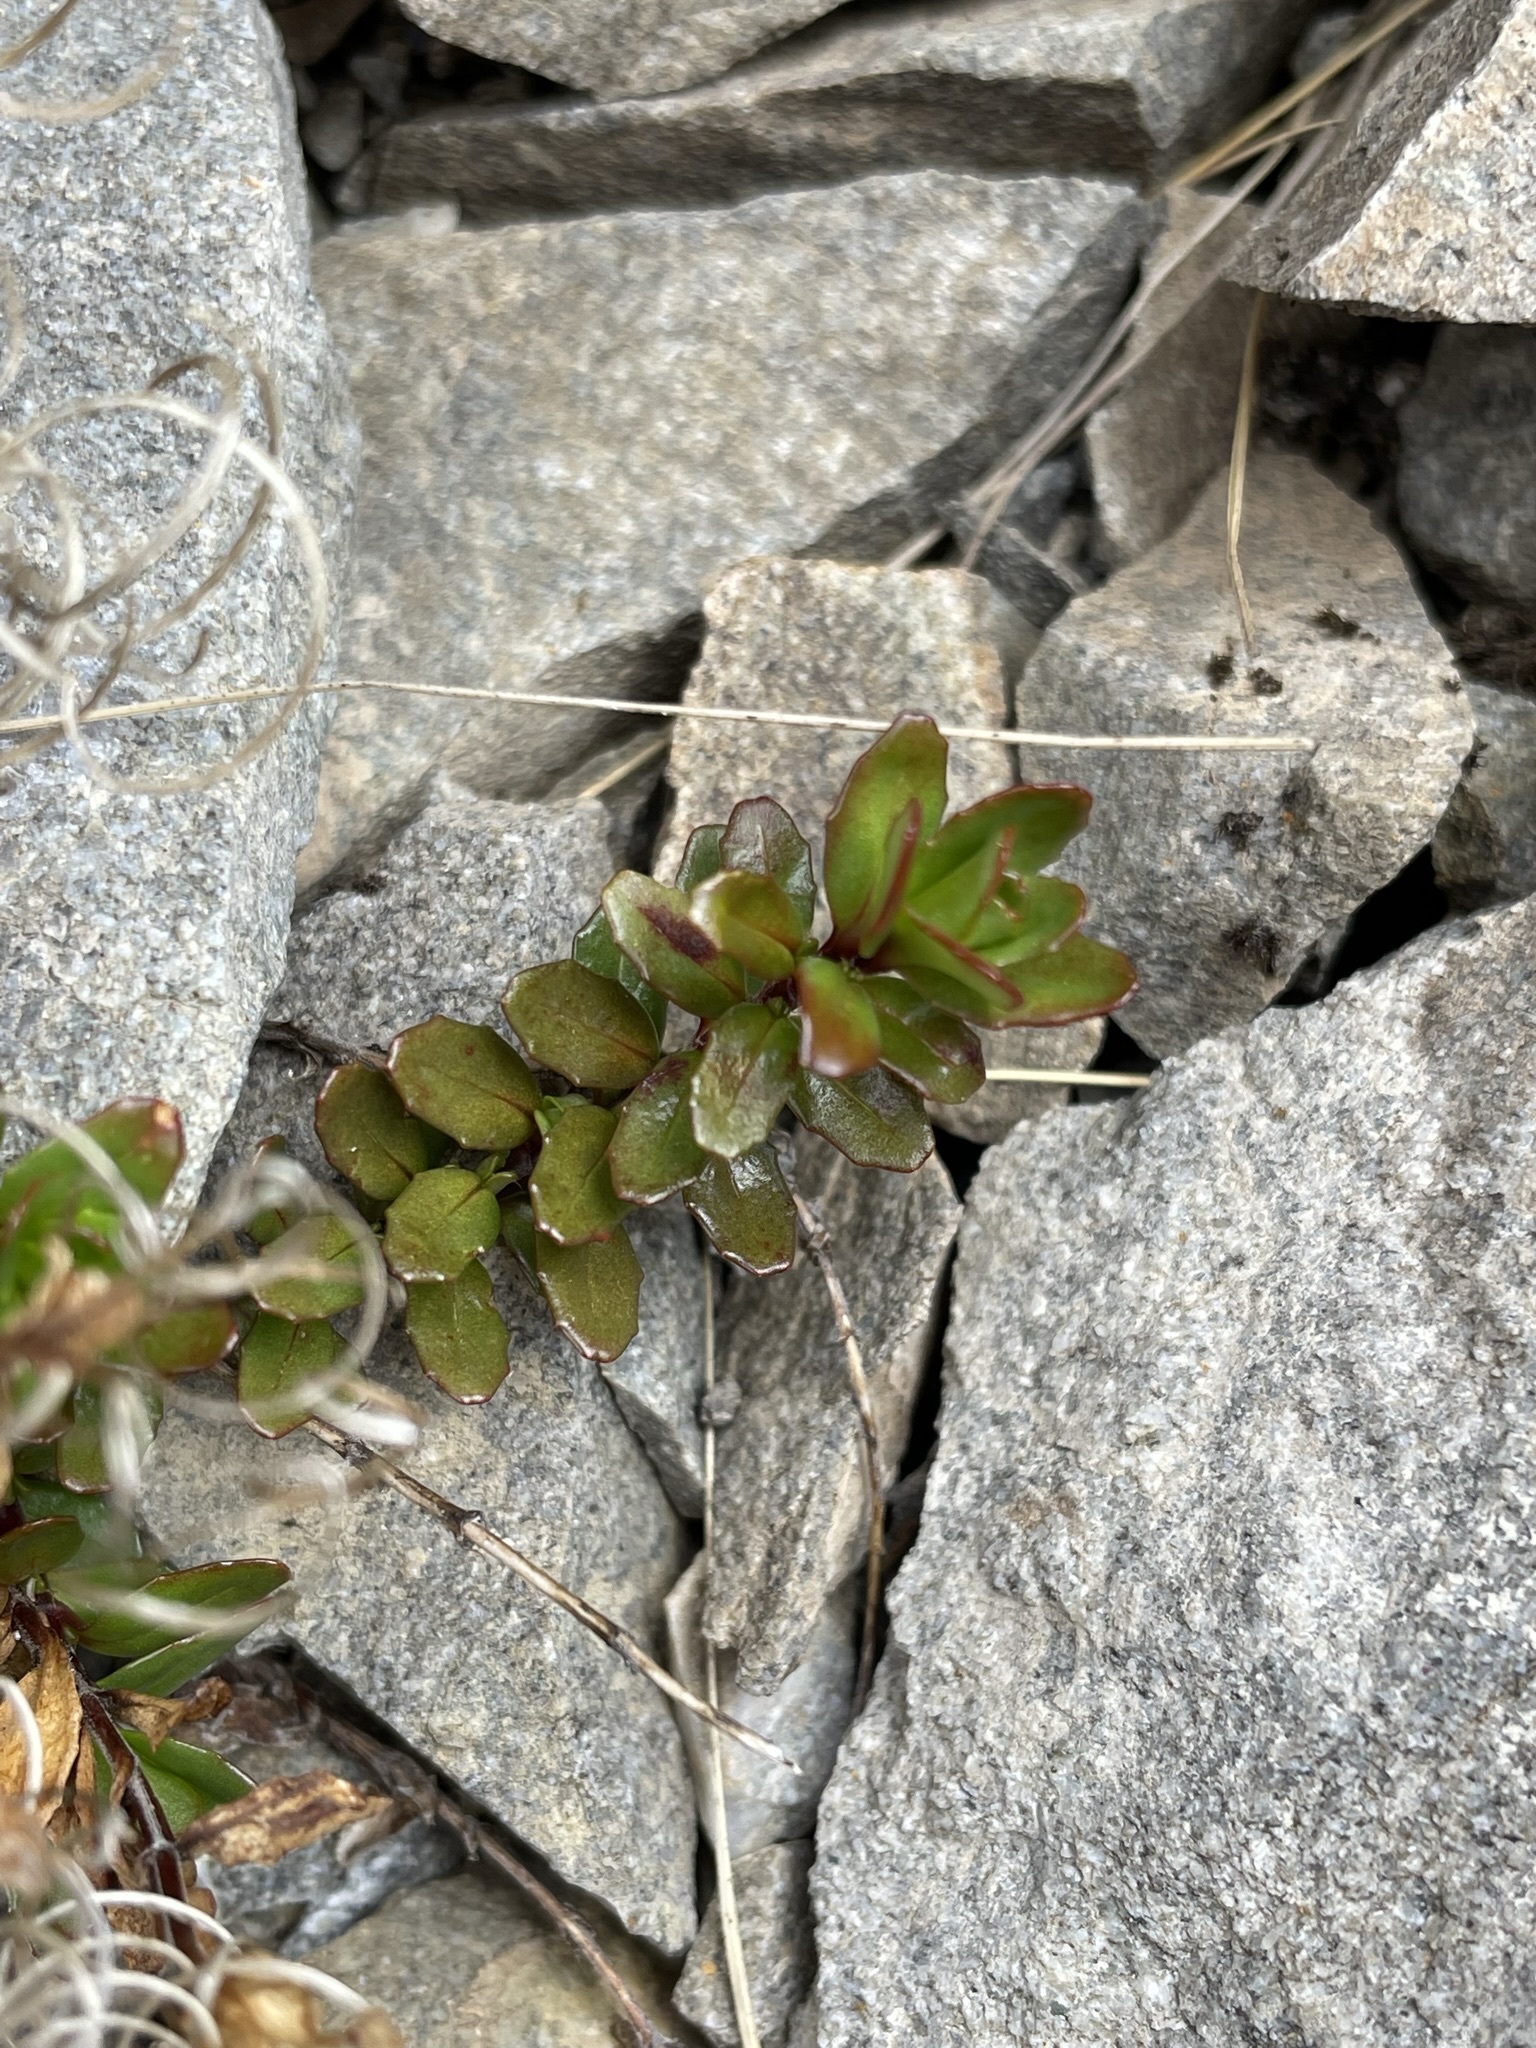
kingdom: Plantae
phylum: Tracheophyta
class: Magnoliopsida
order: Myrtales
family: Onagraceae
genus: Epilobium
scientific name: Epilobium glabellum
